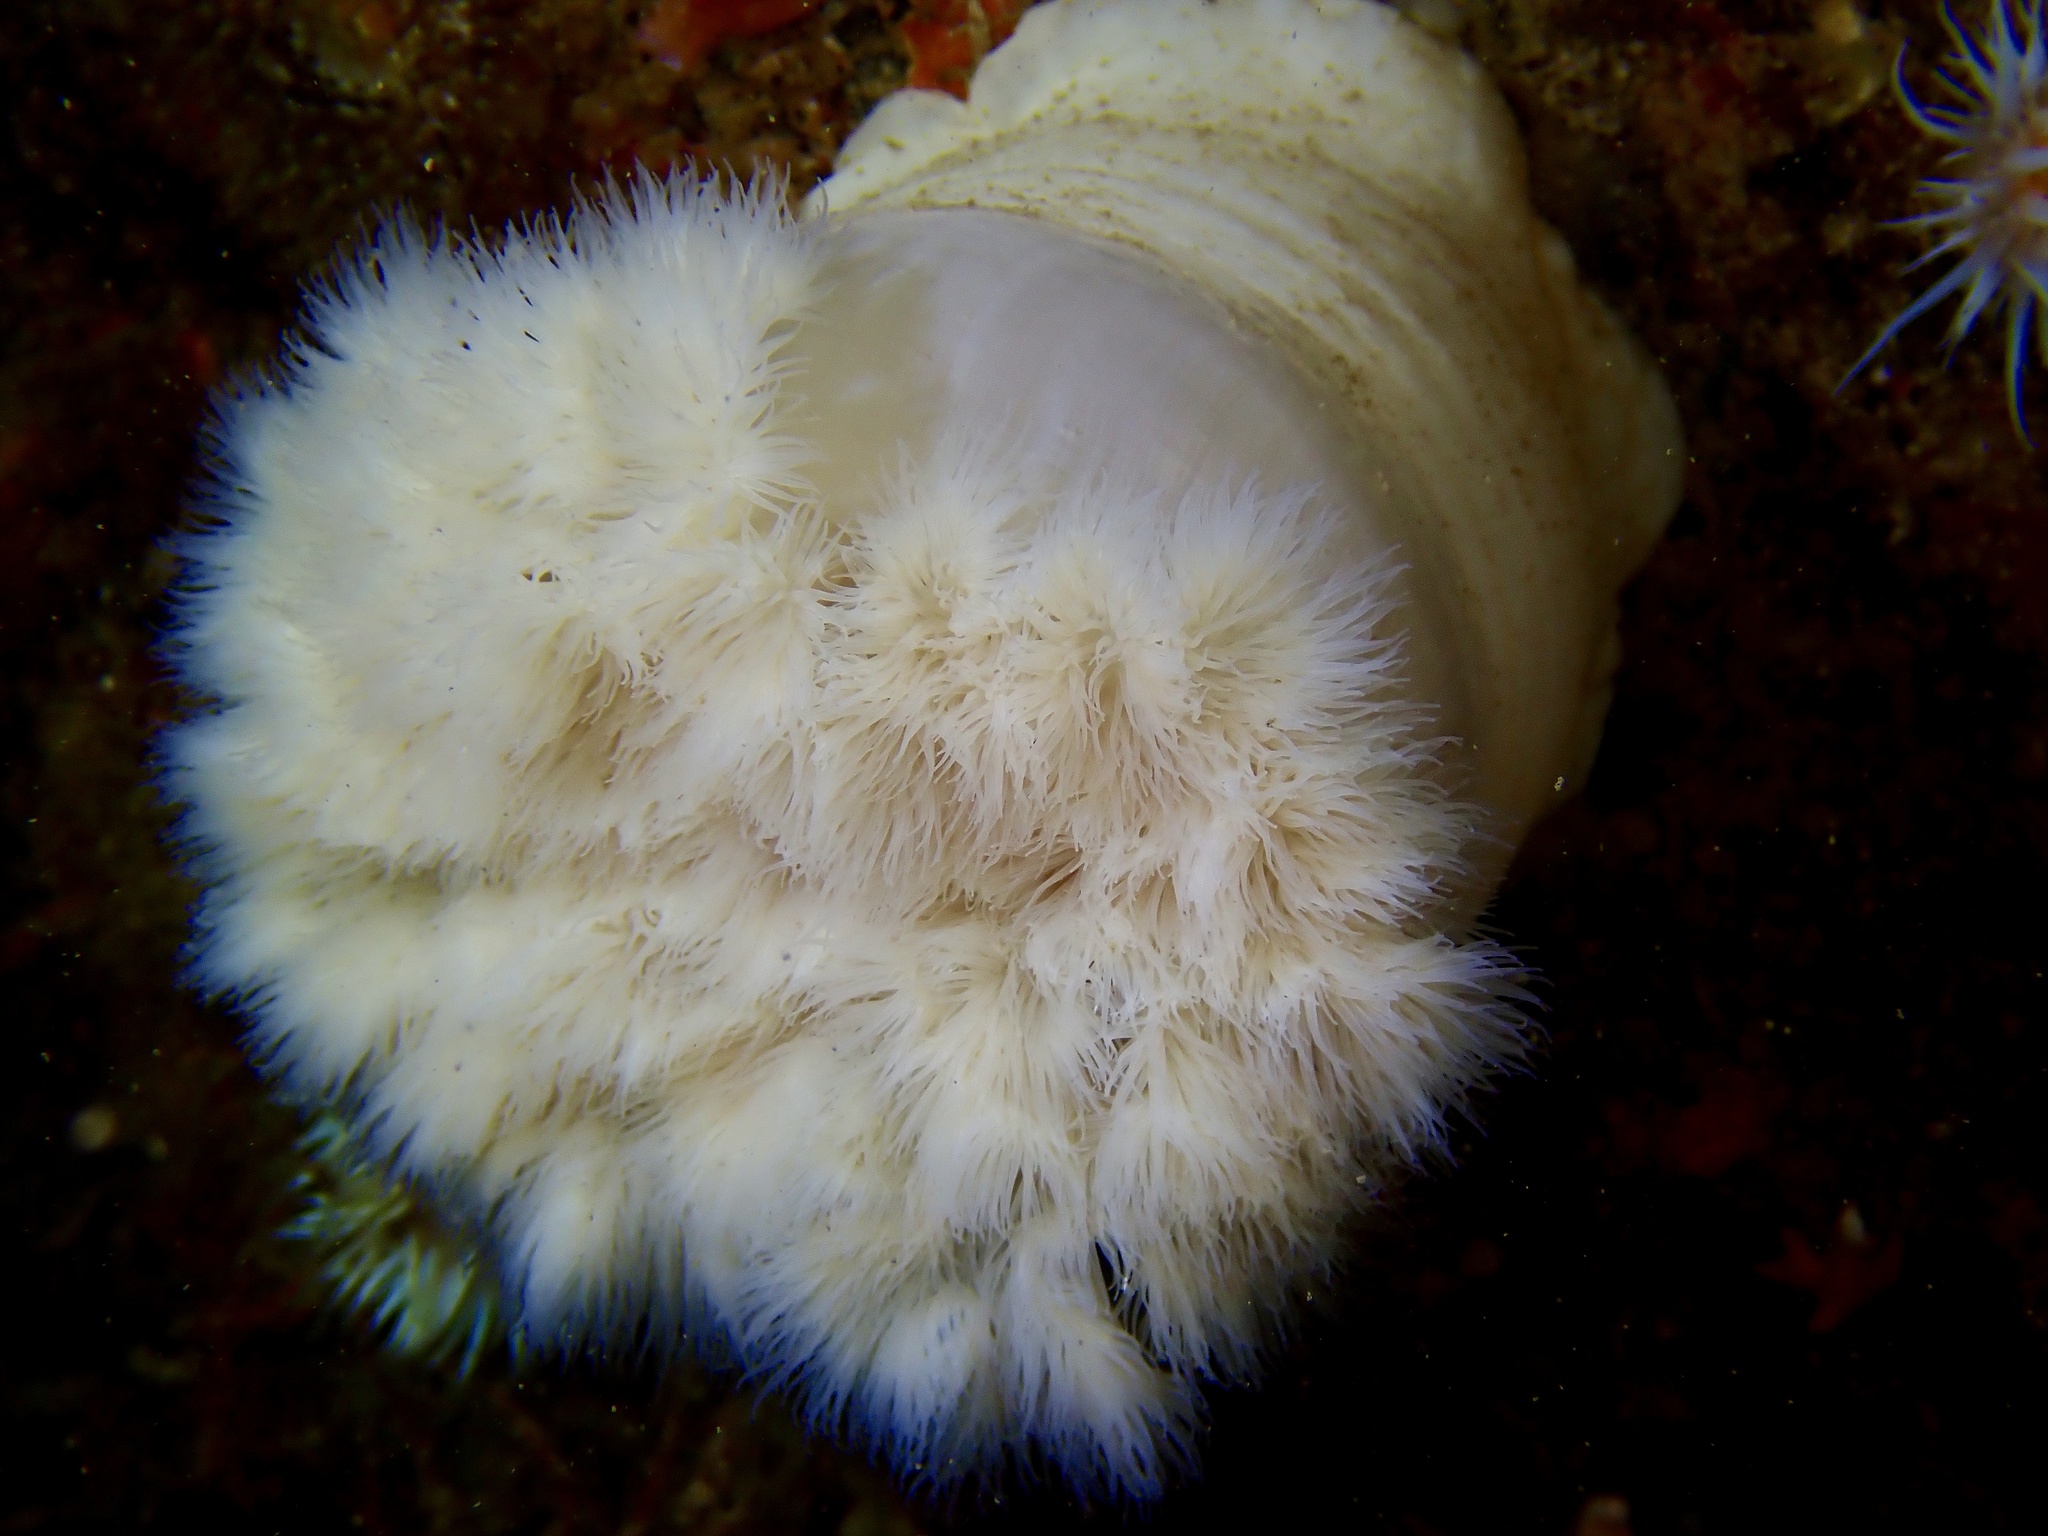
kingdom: Animalia
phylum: Cnidaria
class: Anthozoa
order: Actiniaria
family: Metridiidae
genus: Metridium
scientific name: Metridium senile
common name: Clonal plumose anemone
